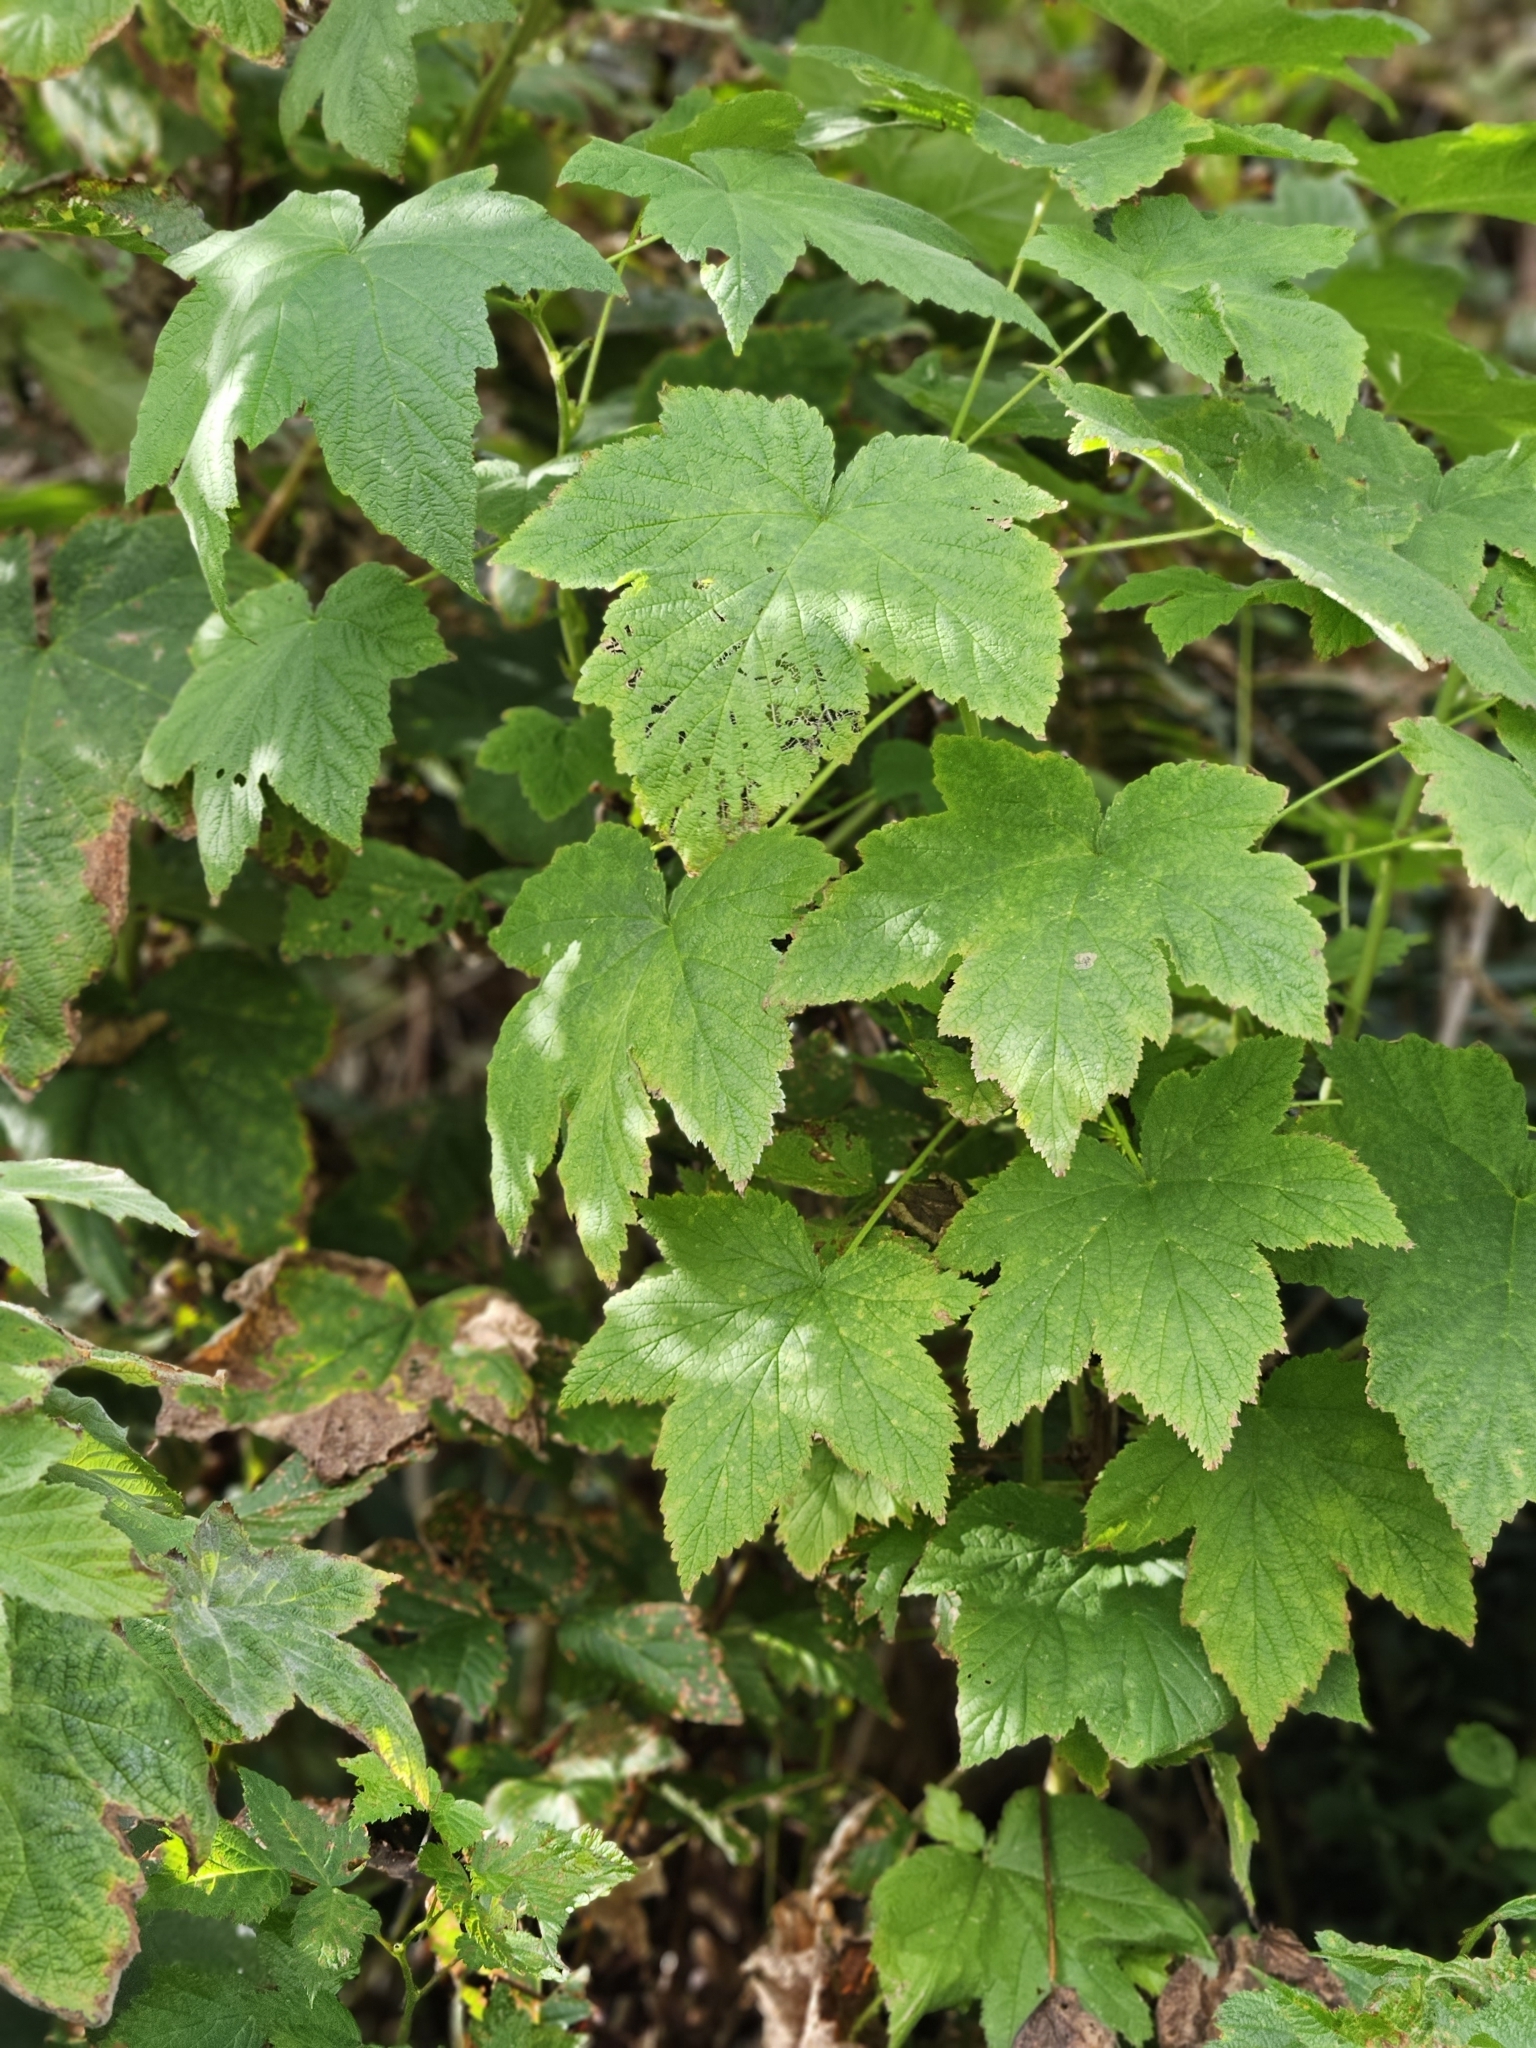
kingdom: Plantae
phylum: Tracheophyta
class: Magnoliopsida
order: Rosales
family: Rosaceae
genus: Rubus
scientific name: Rubus parviflorus
